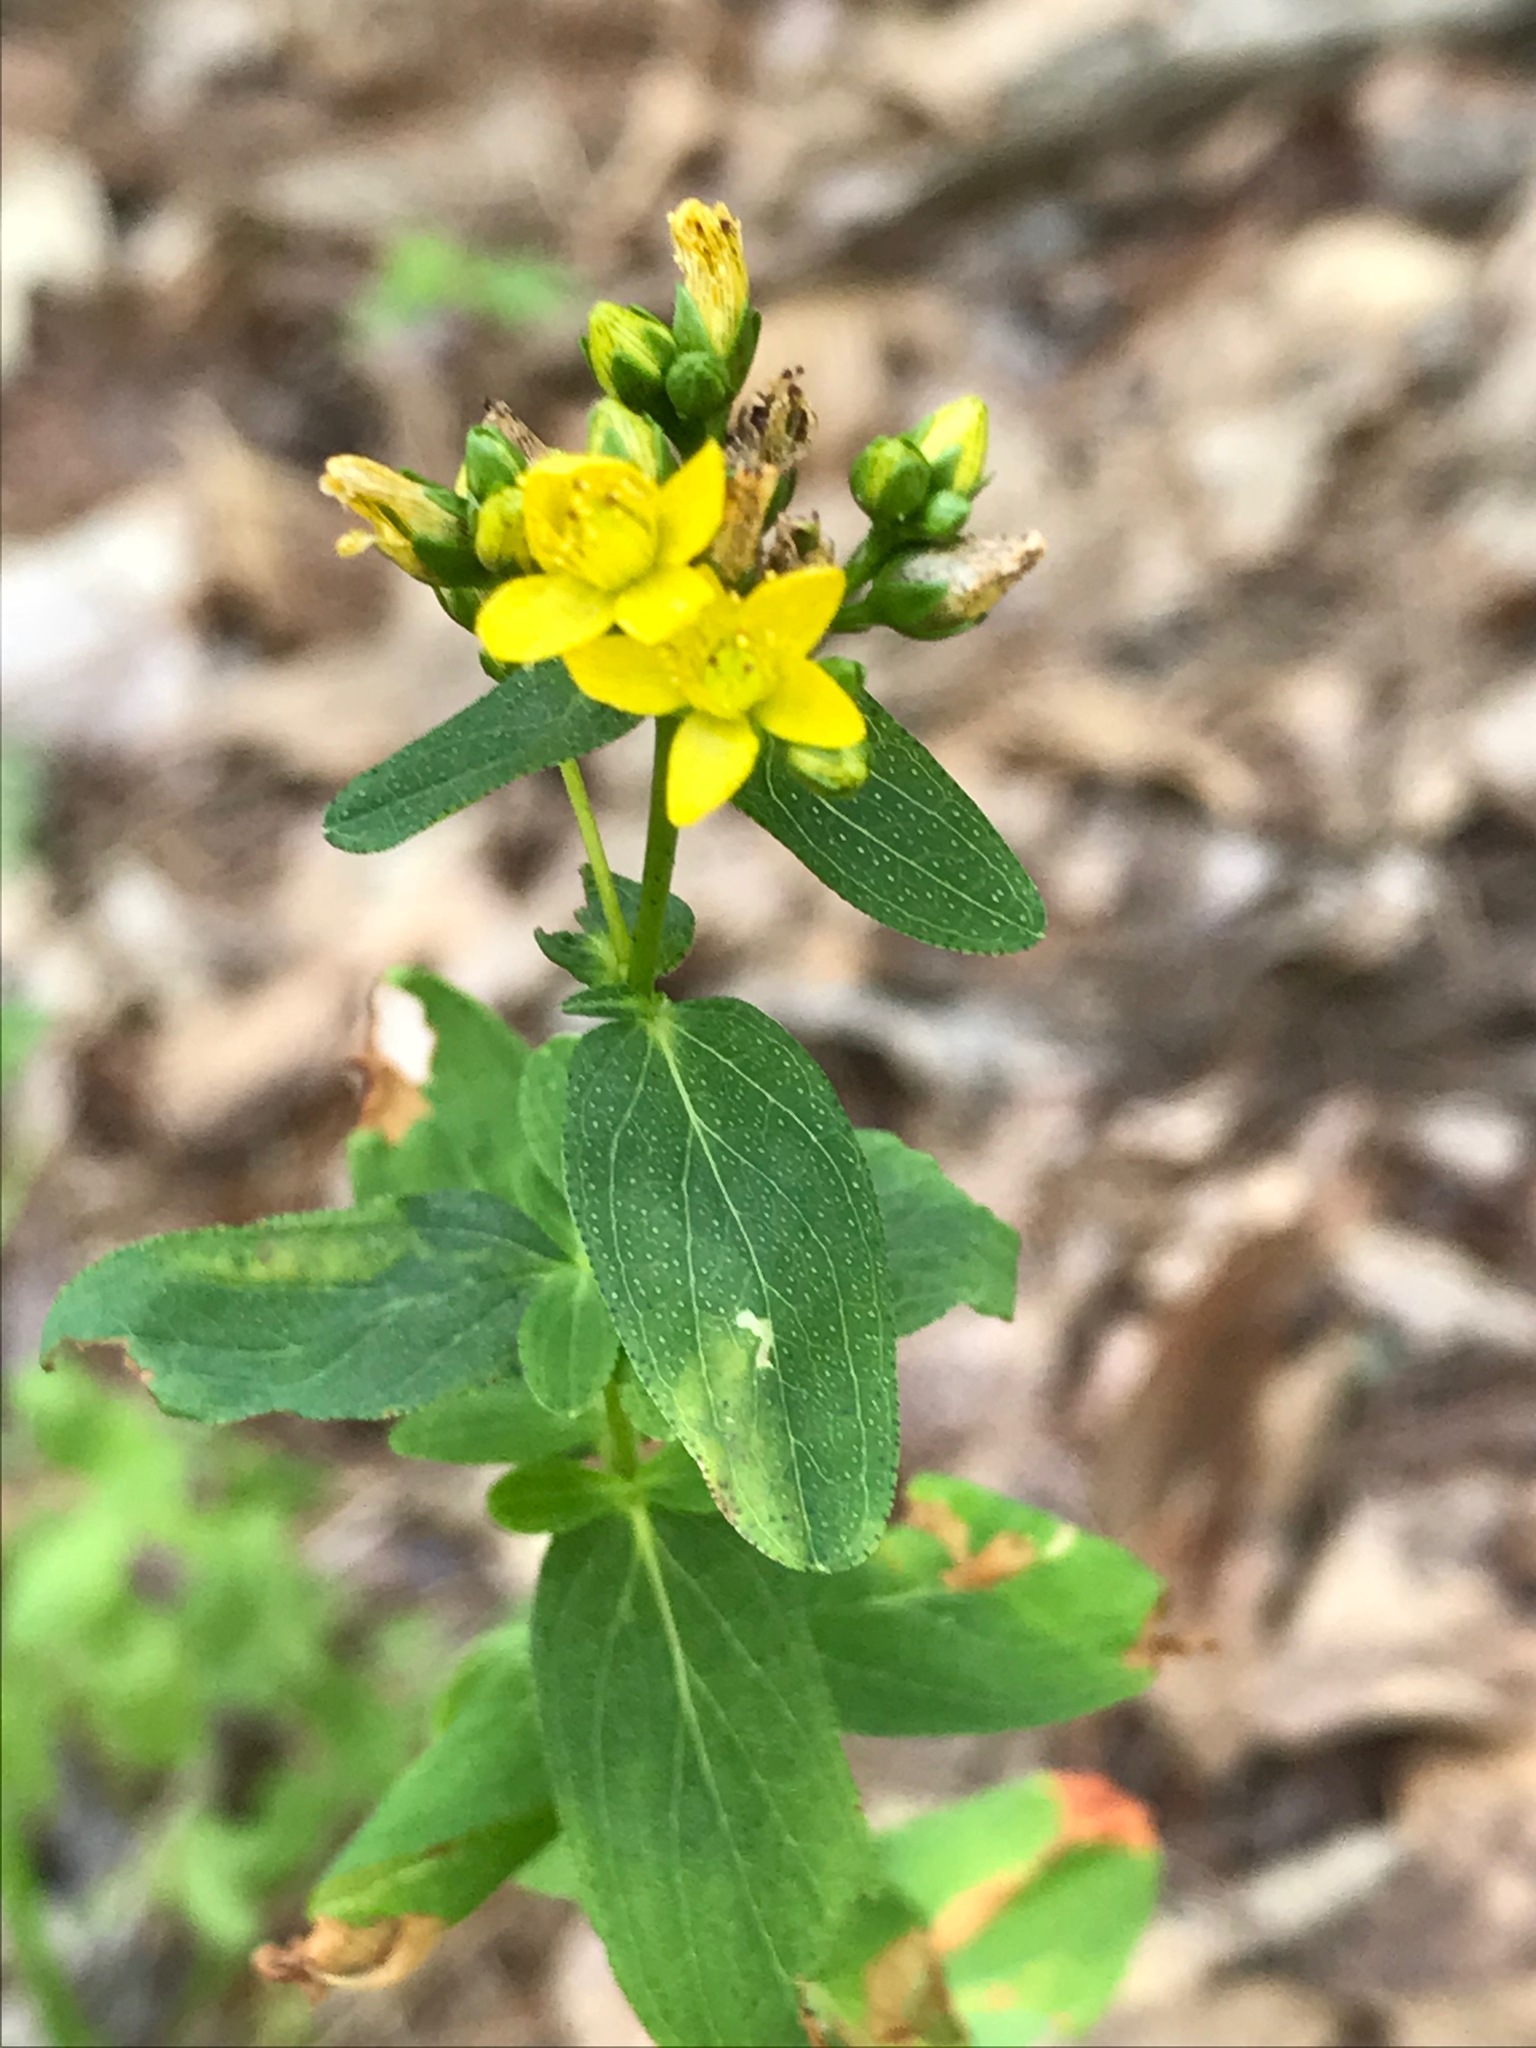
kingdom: Plantae
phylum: Tracheophyta
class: Magnoliopsida
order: Malpighiales
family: Hypericaceae
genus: Hypericum
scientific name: Hypericum punctatum
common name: Spotted st. john's-wort
